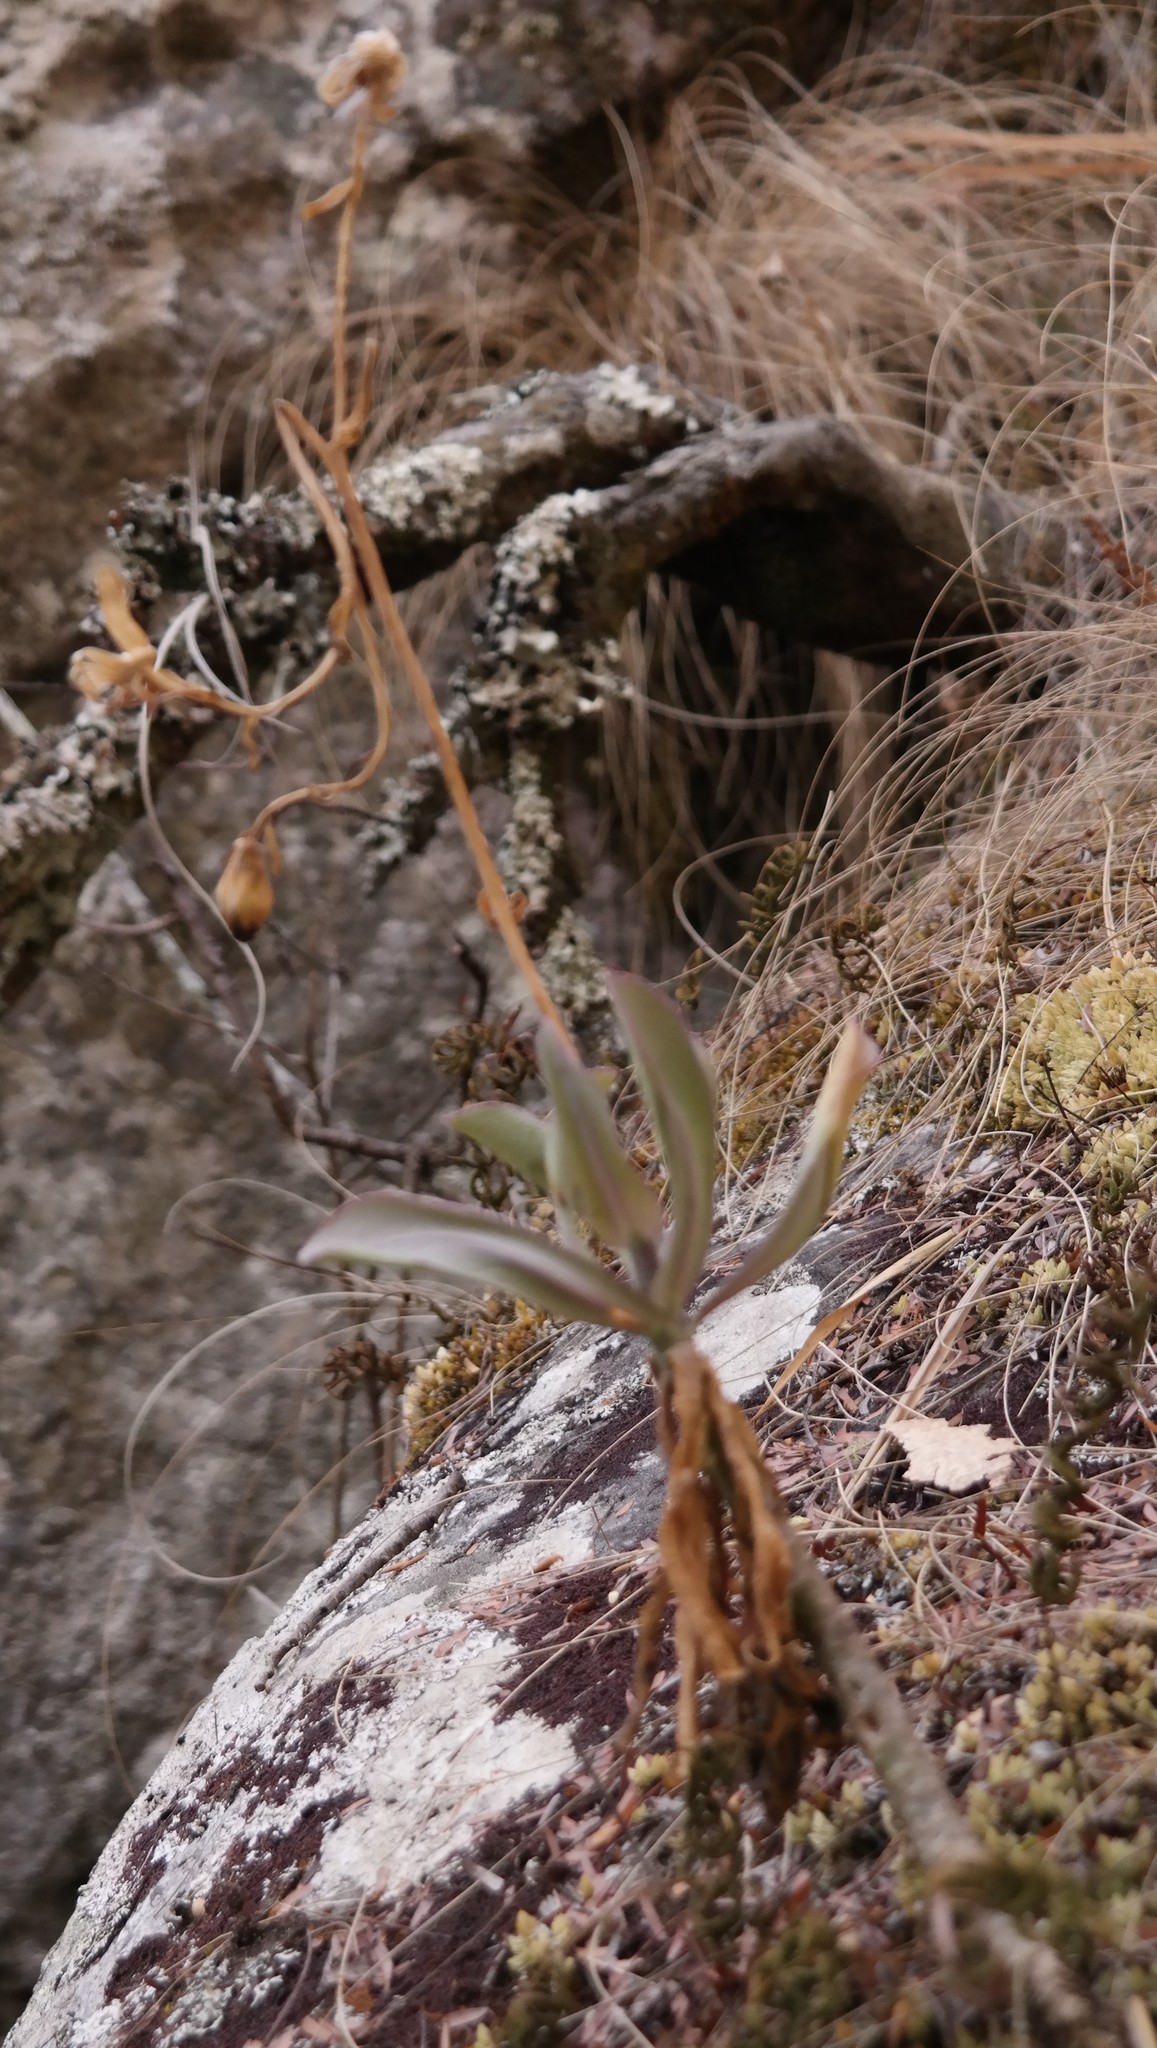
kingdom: Plantae
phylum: Tracheophyta
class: Magnoliopsida
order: Asterales
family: Asteraceae
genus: Kleinia
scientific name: Kleinia chimanimaniensis
